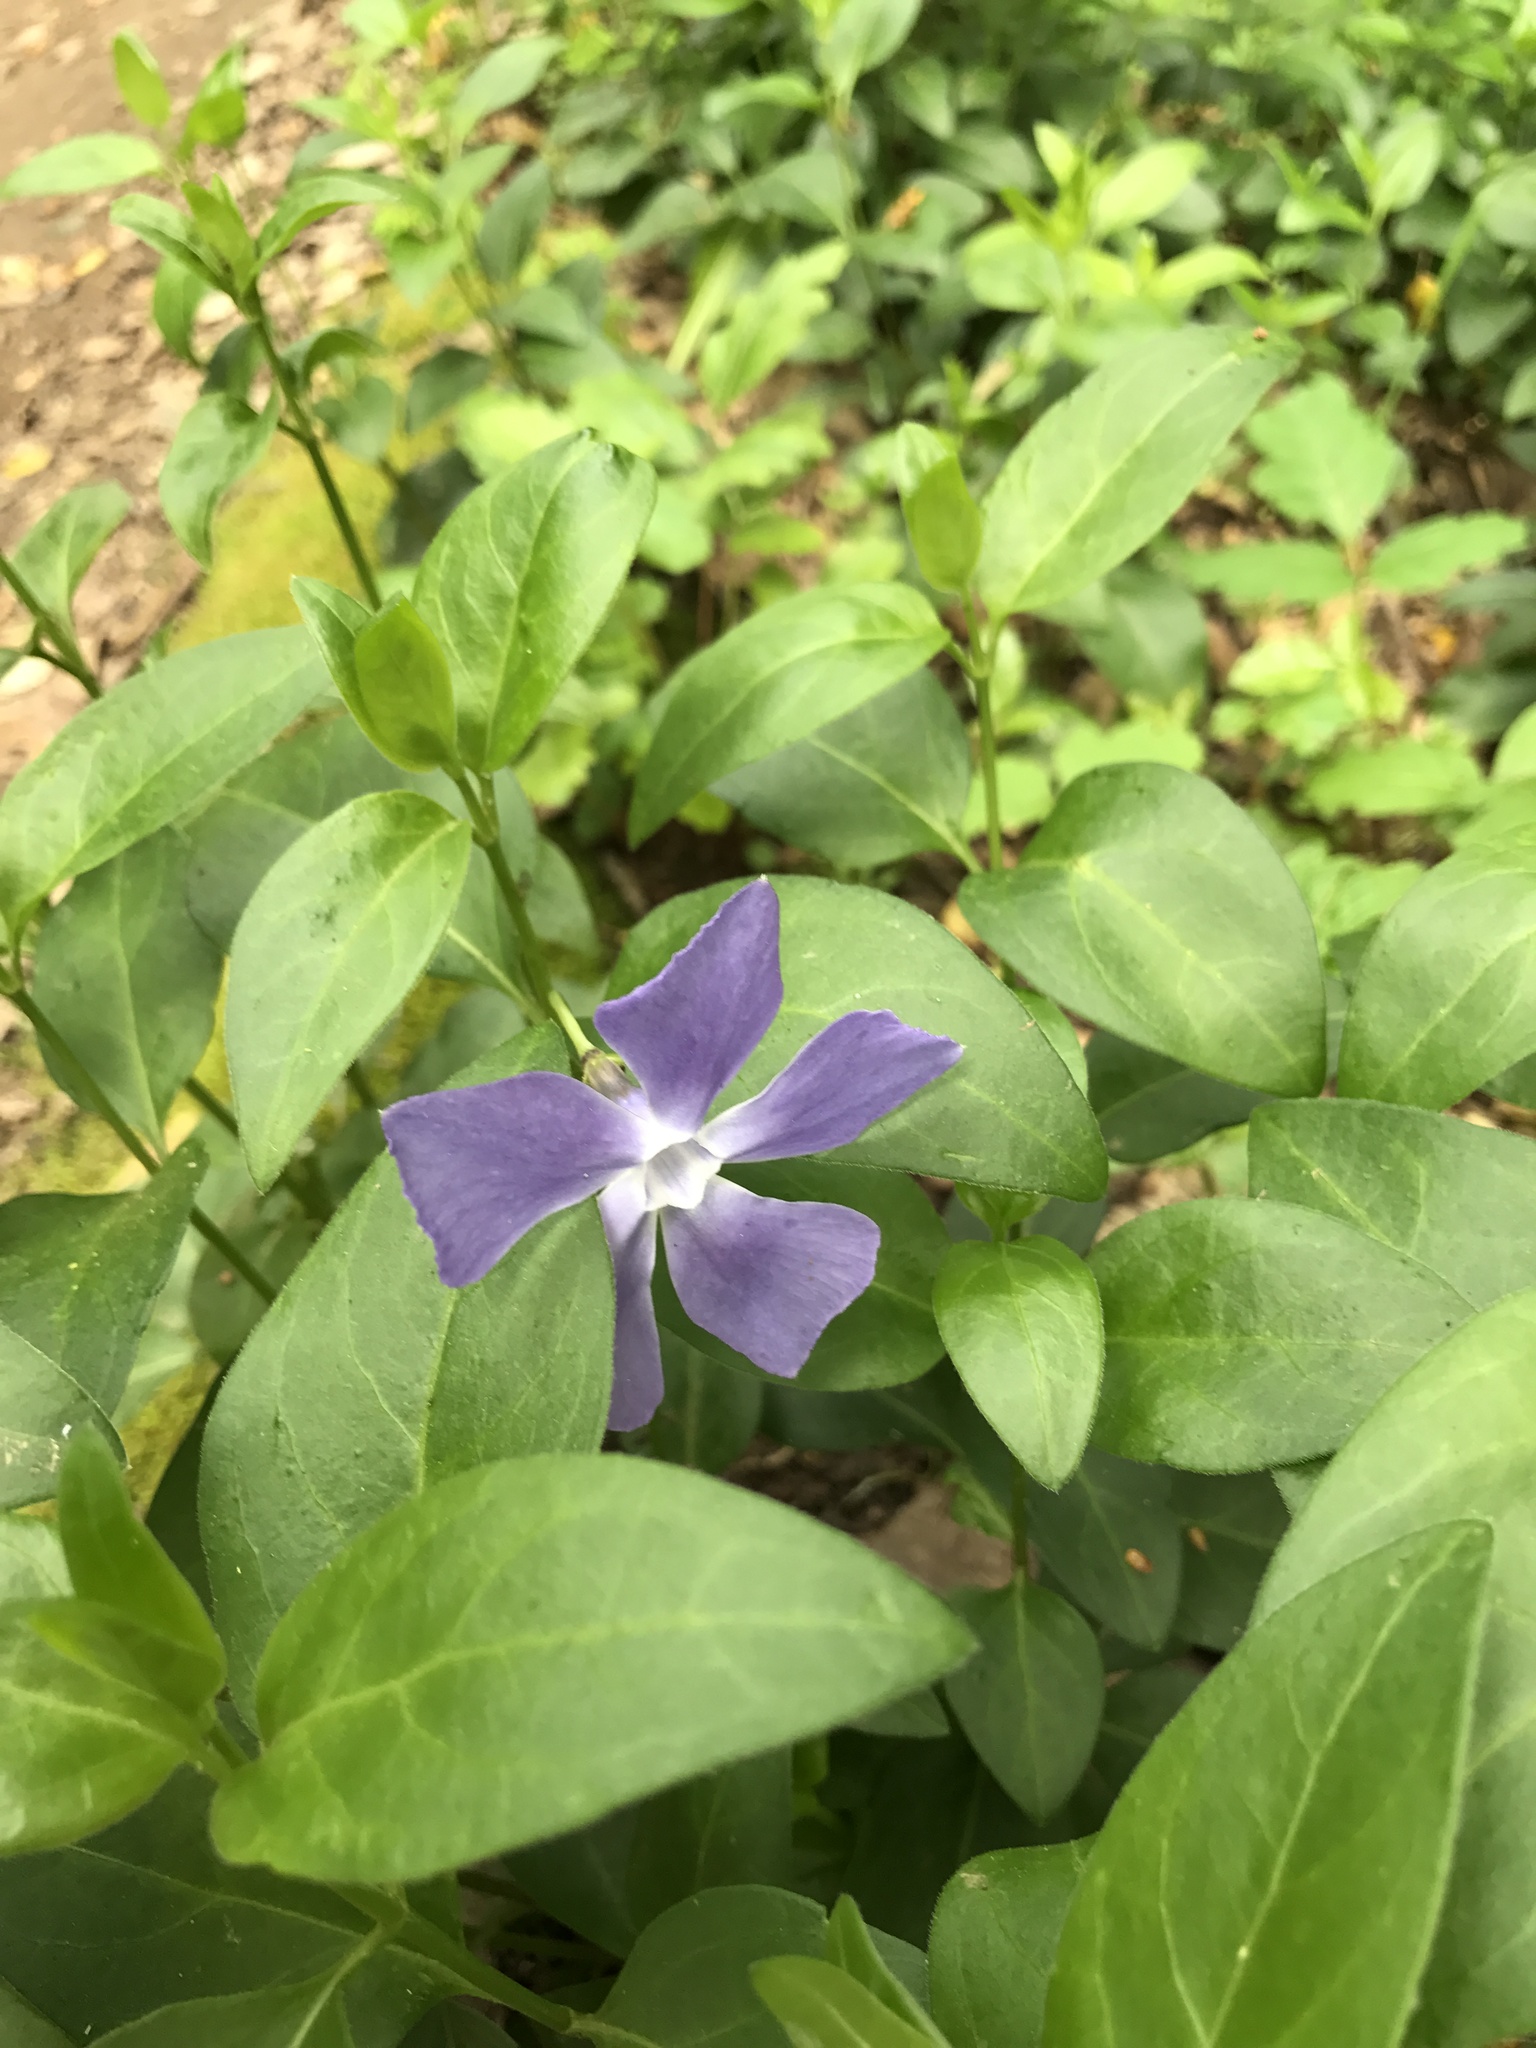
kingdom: Plantae
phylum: Tracheophyta
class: Magnoliopsida
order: Gentianales
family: Apocynaceae
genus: Vinca
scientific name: Vinca major
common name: Greater periwinkle
